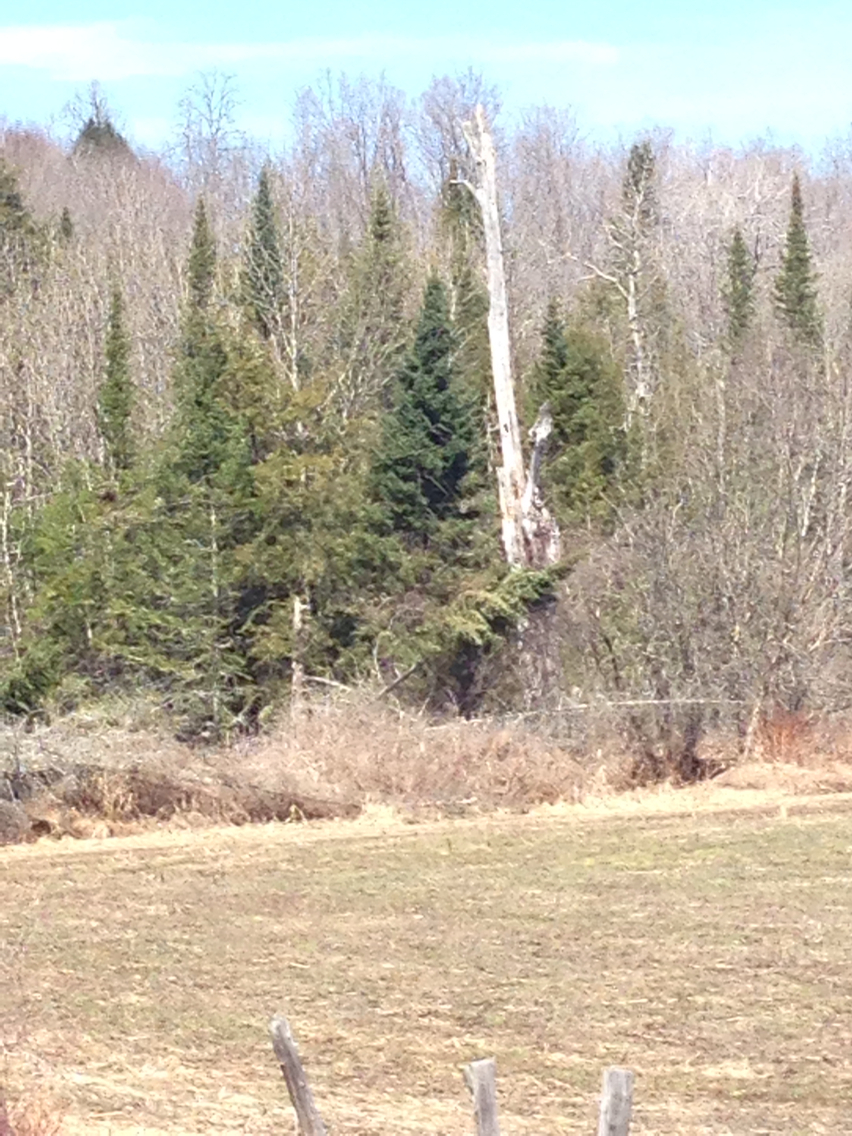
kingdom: Plantae
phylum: Tracheophyta
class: Pinopsida
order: Pinales
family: Pinaceae
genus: Abies
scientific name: Abies balsamea
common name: Balsam fir
